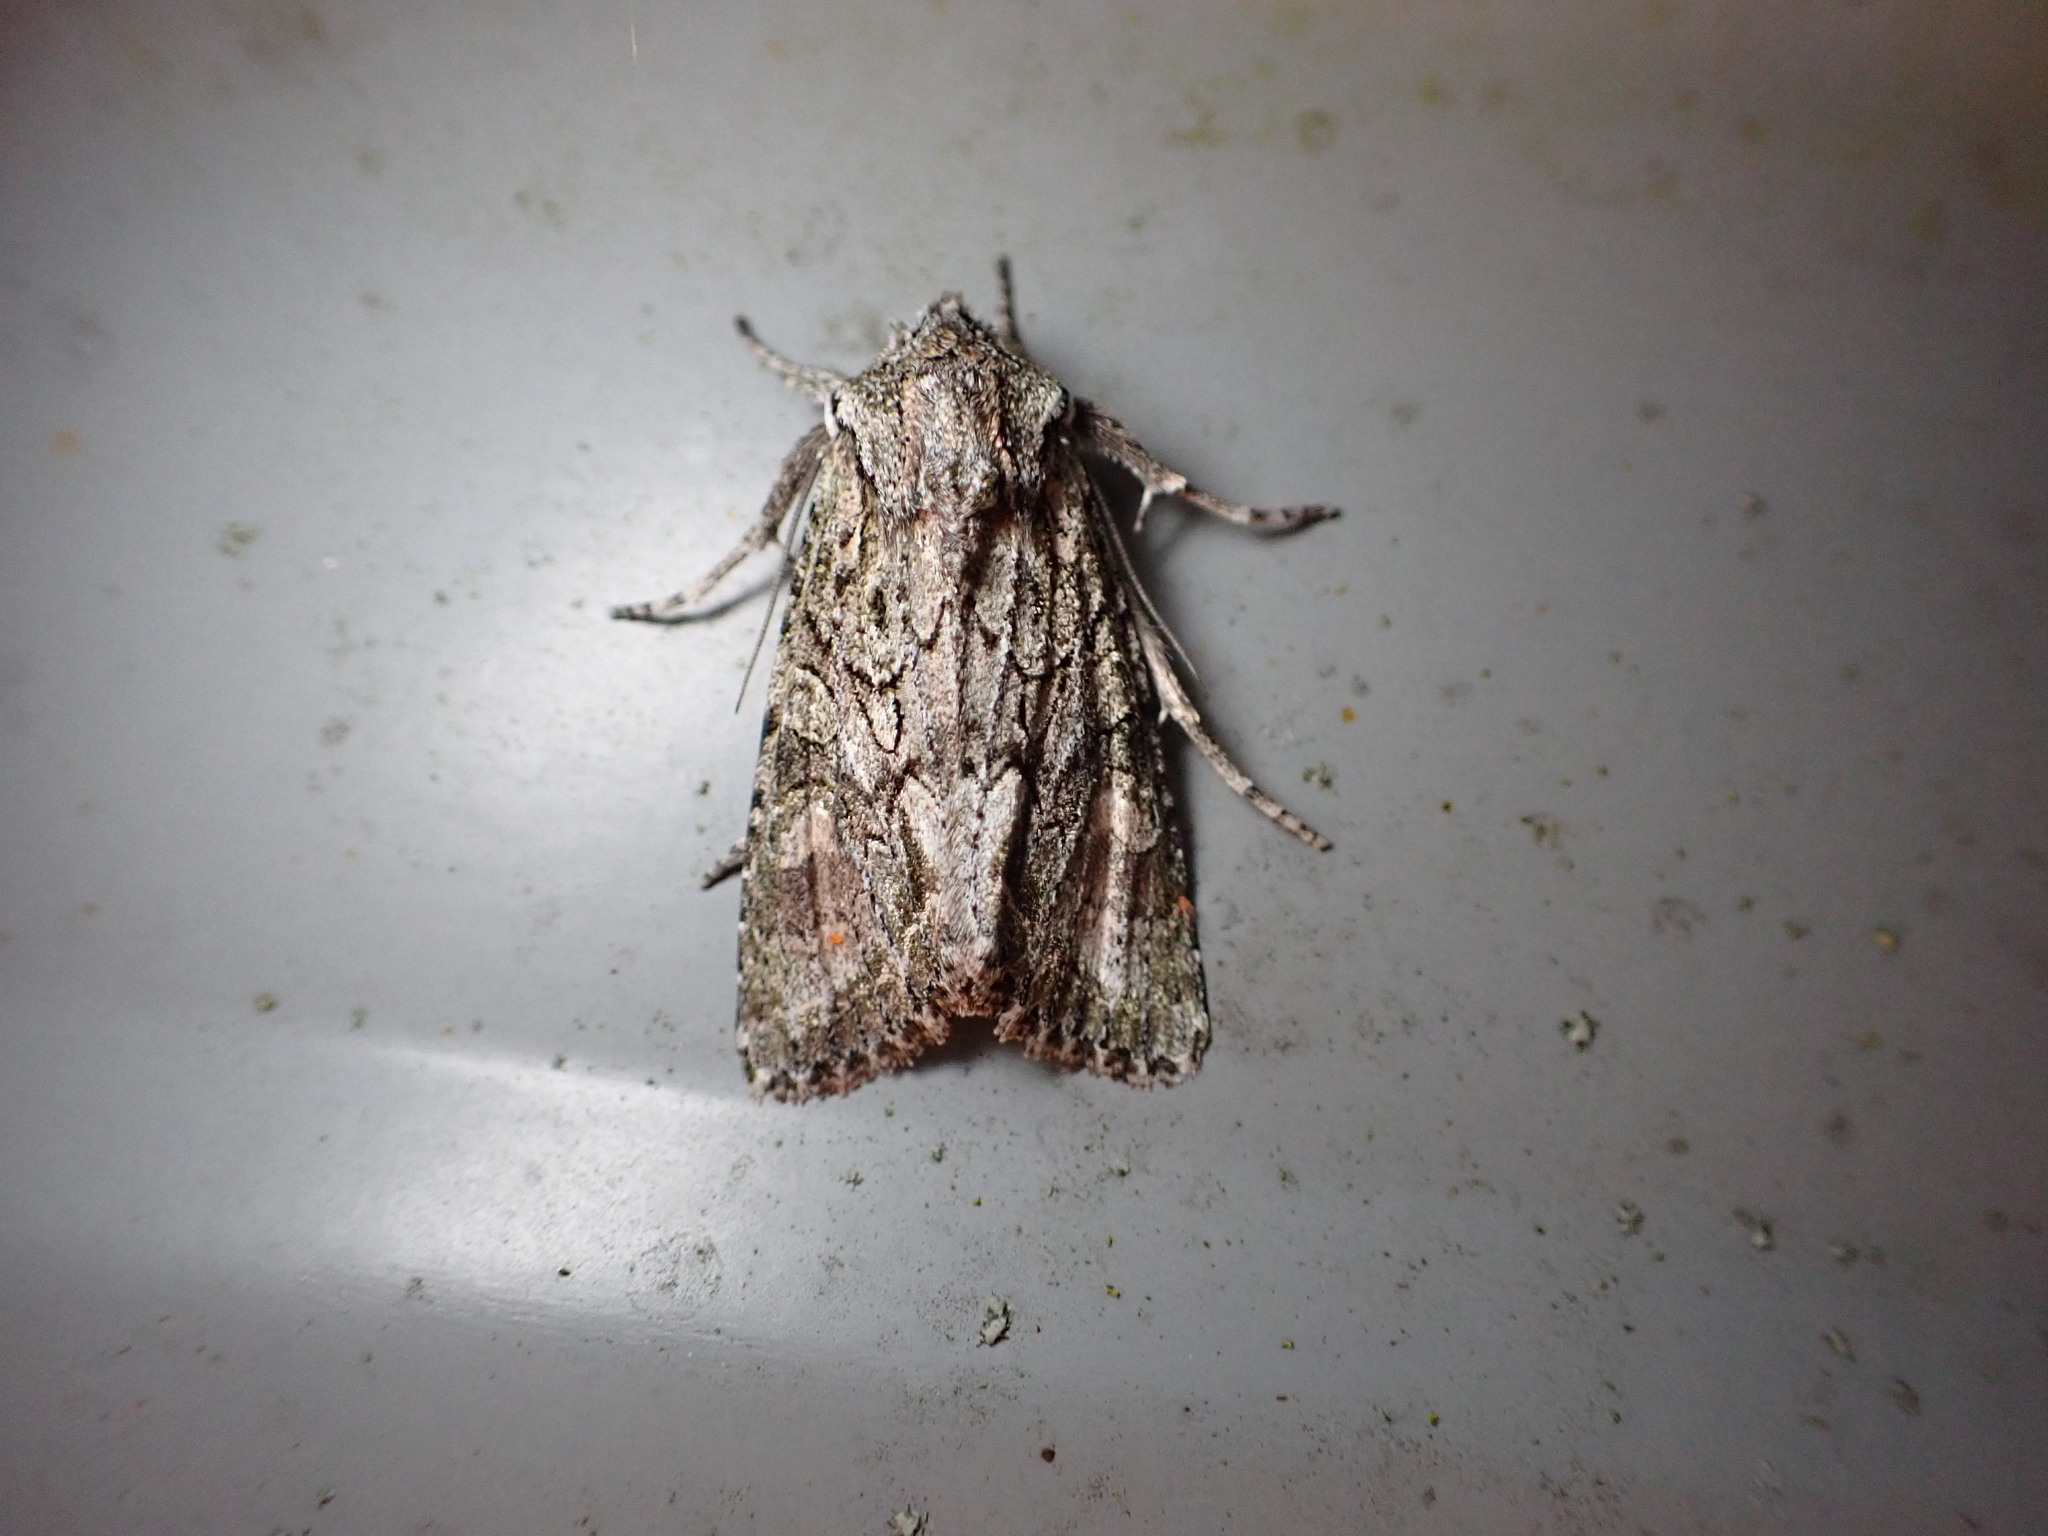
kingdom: Animalia
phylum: Arthropoda
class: Insecta
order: Lepidoptera
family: Noctuidae
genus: Ichneutica
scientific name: Ichneutica mutans
